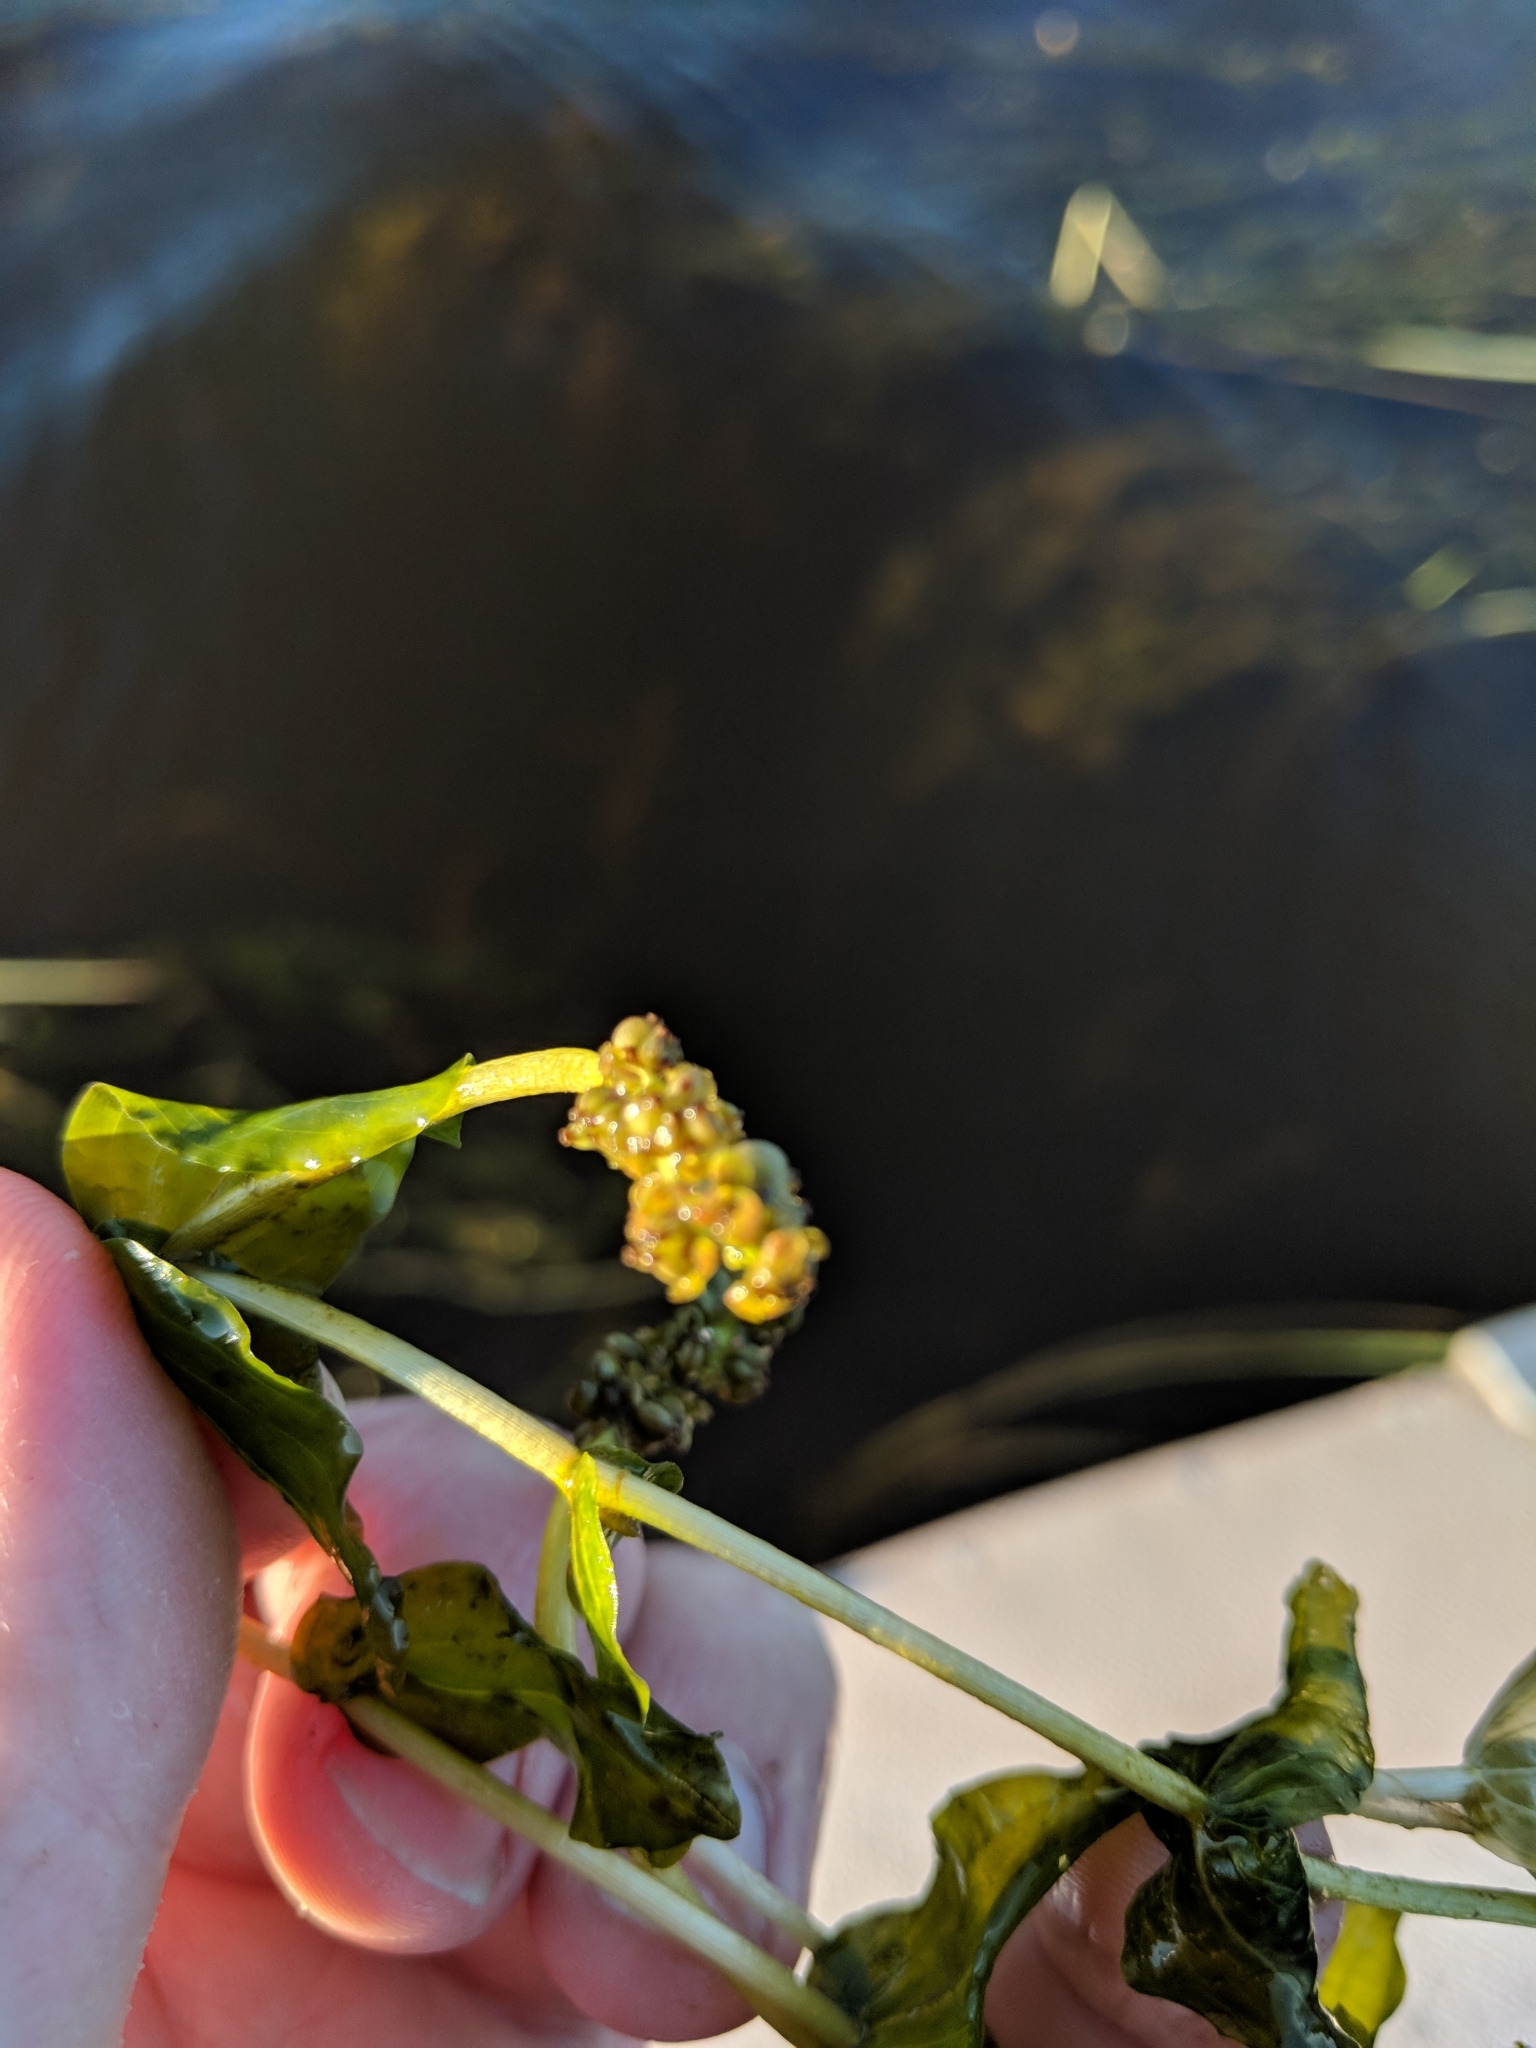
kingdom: Plantae
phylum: Tracheophyta
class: Liliopsida
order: Alismatales
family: Potamogetonaceae
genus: Potamogeton
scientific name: Potamogeton richardsonii
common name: Richardson's pondweed
